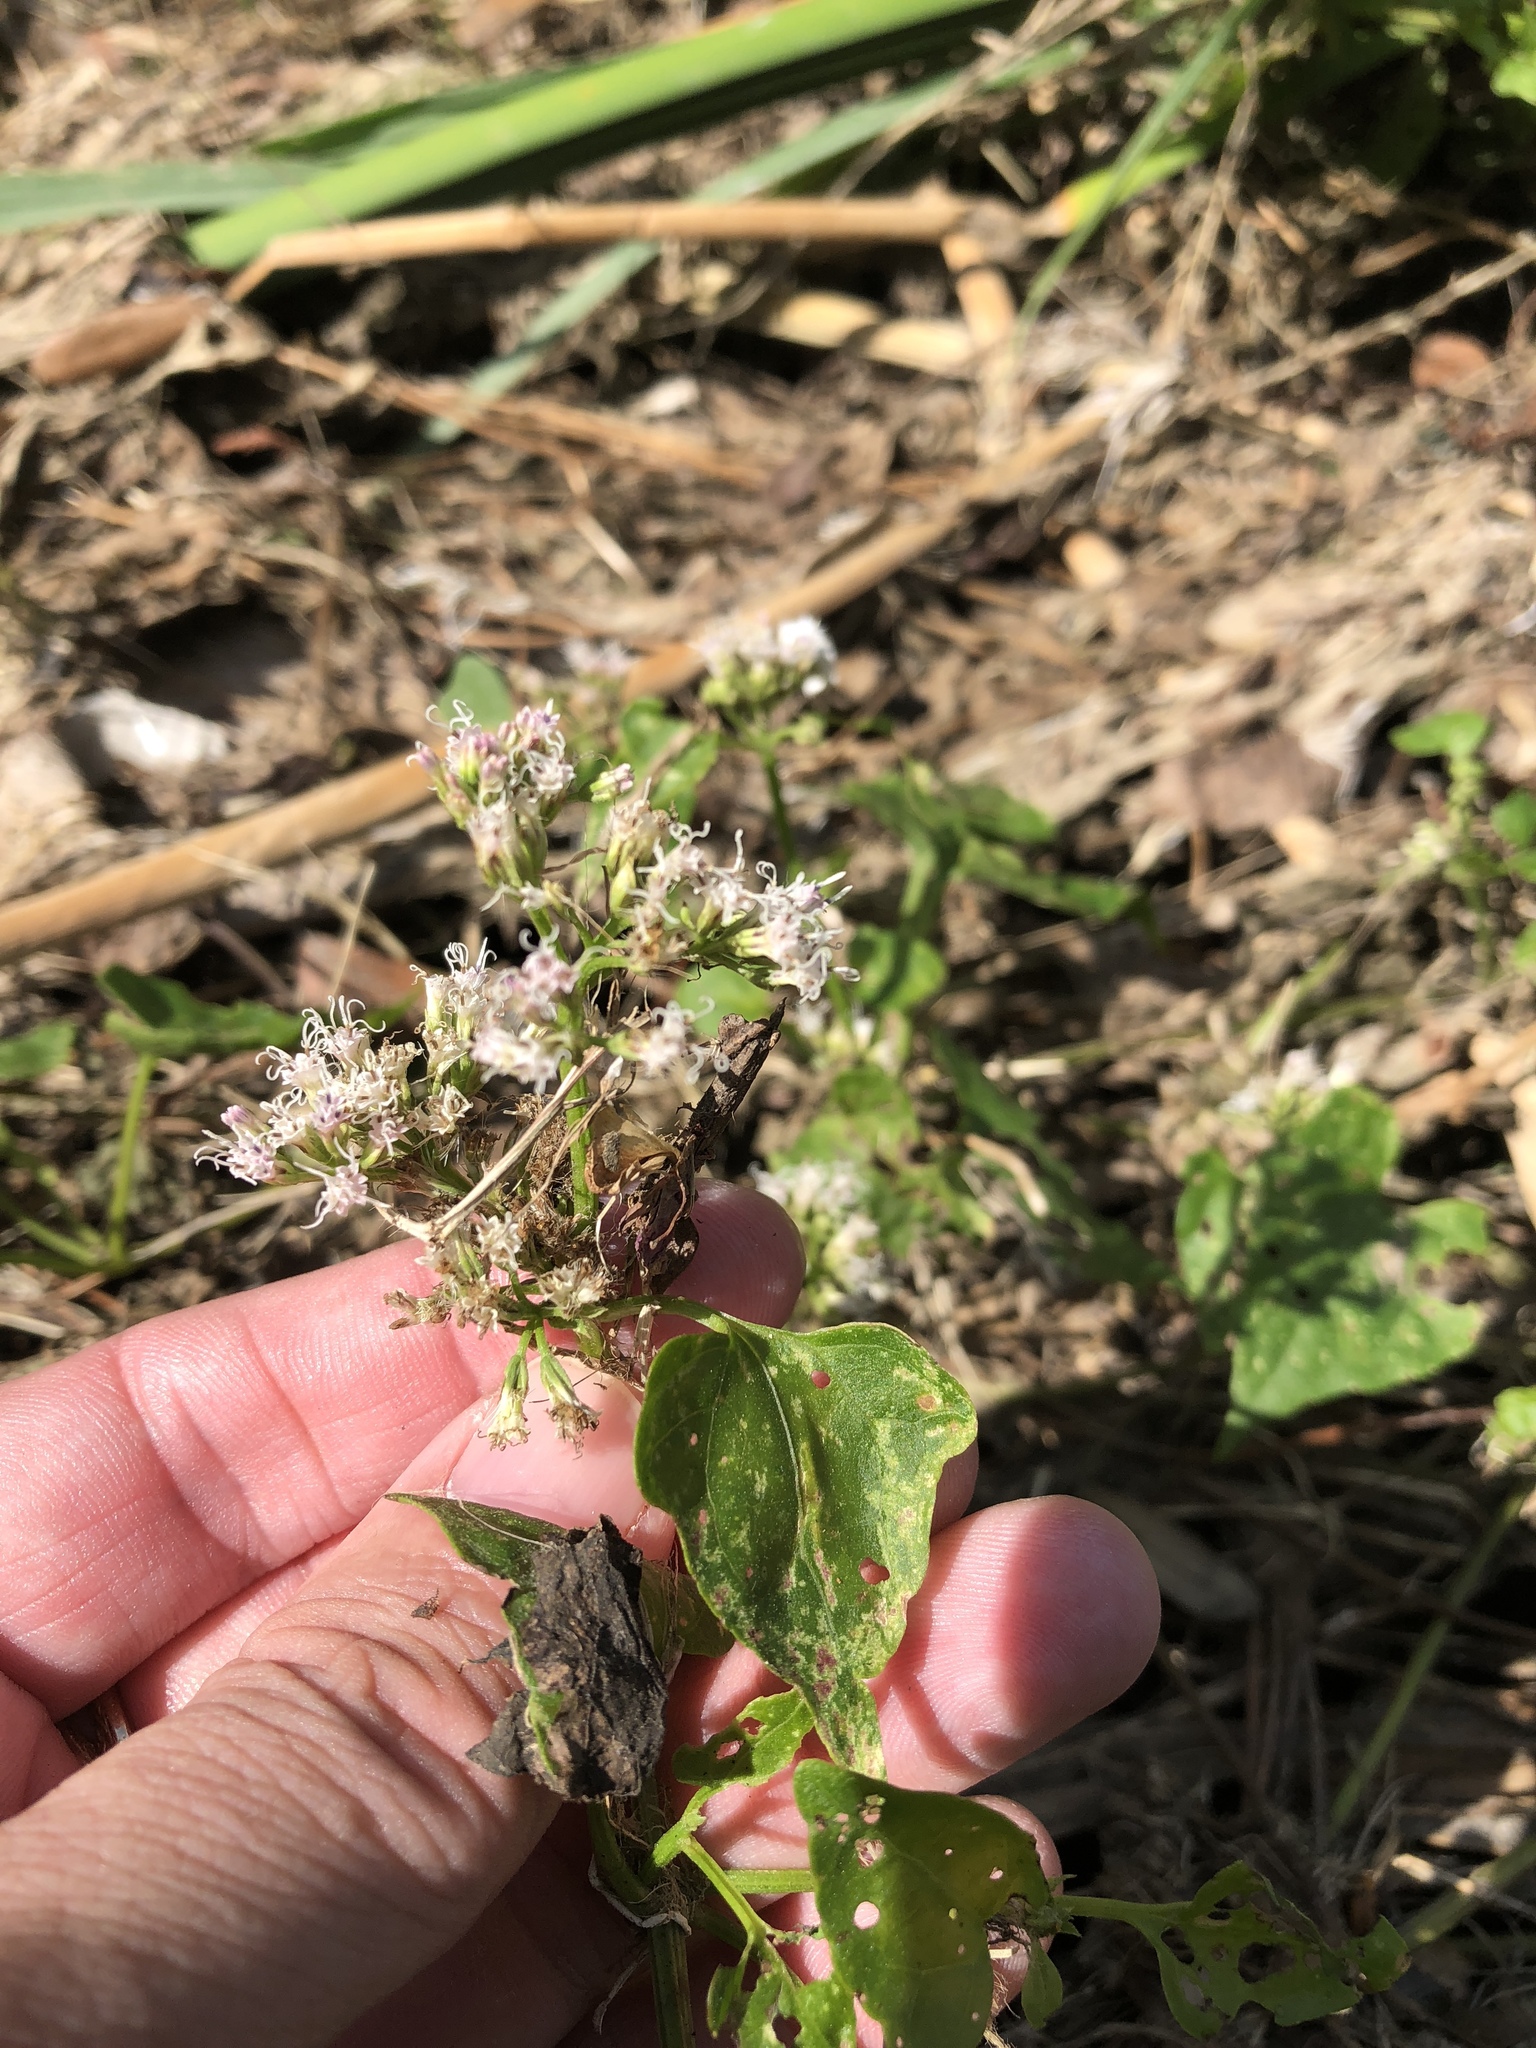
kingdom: Plantae
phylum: Tracheophyta
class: Magnoliopsida
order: Asterales
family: Asteraceae
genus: Mikania
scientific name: Mikania scandens
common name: Climbing hempvine
